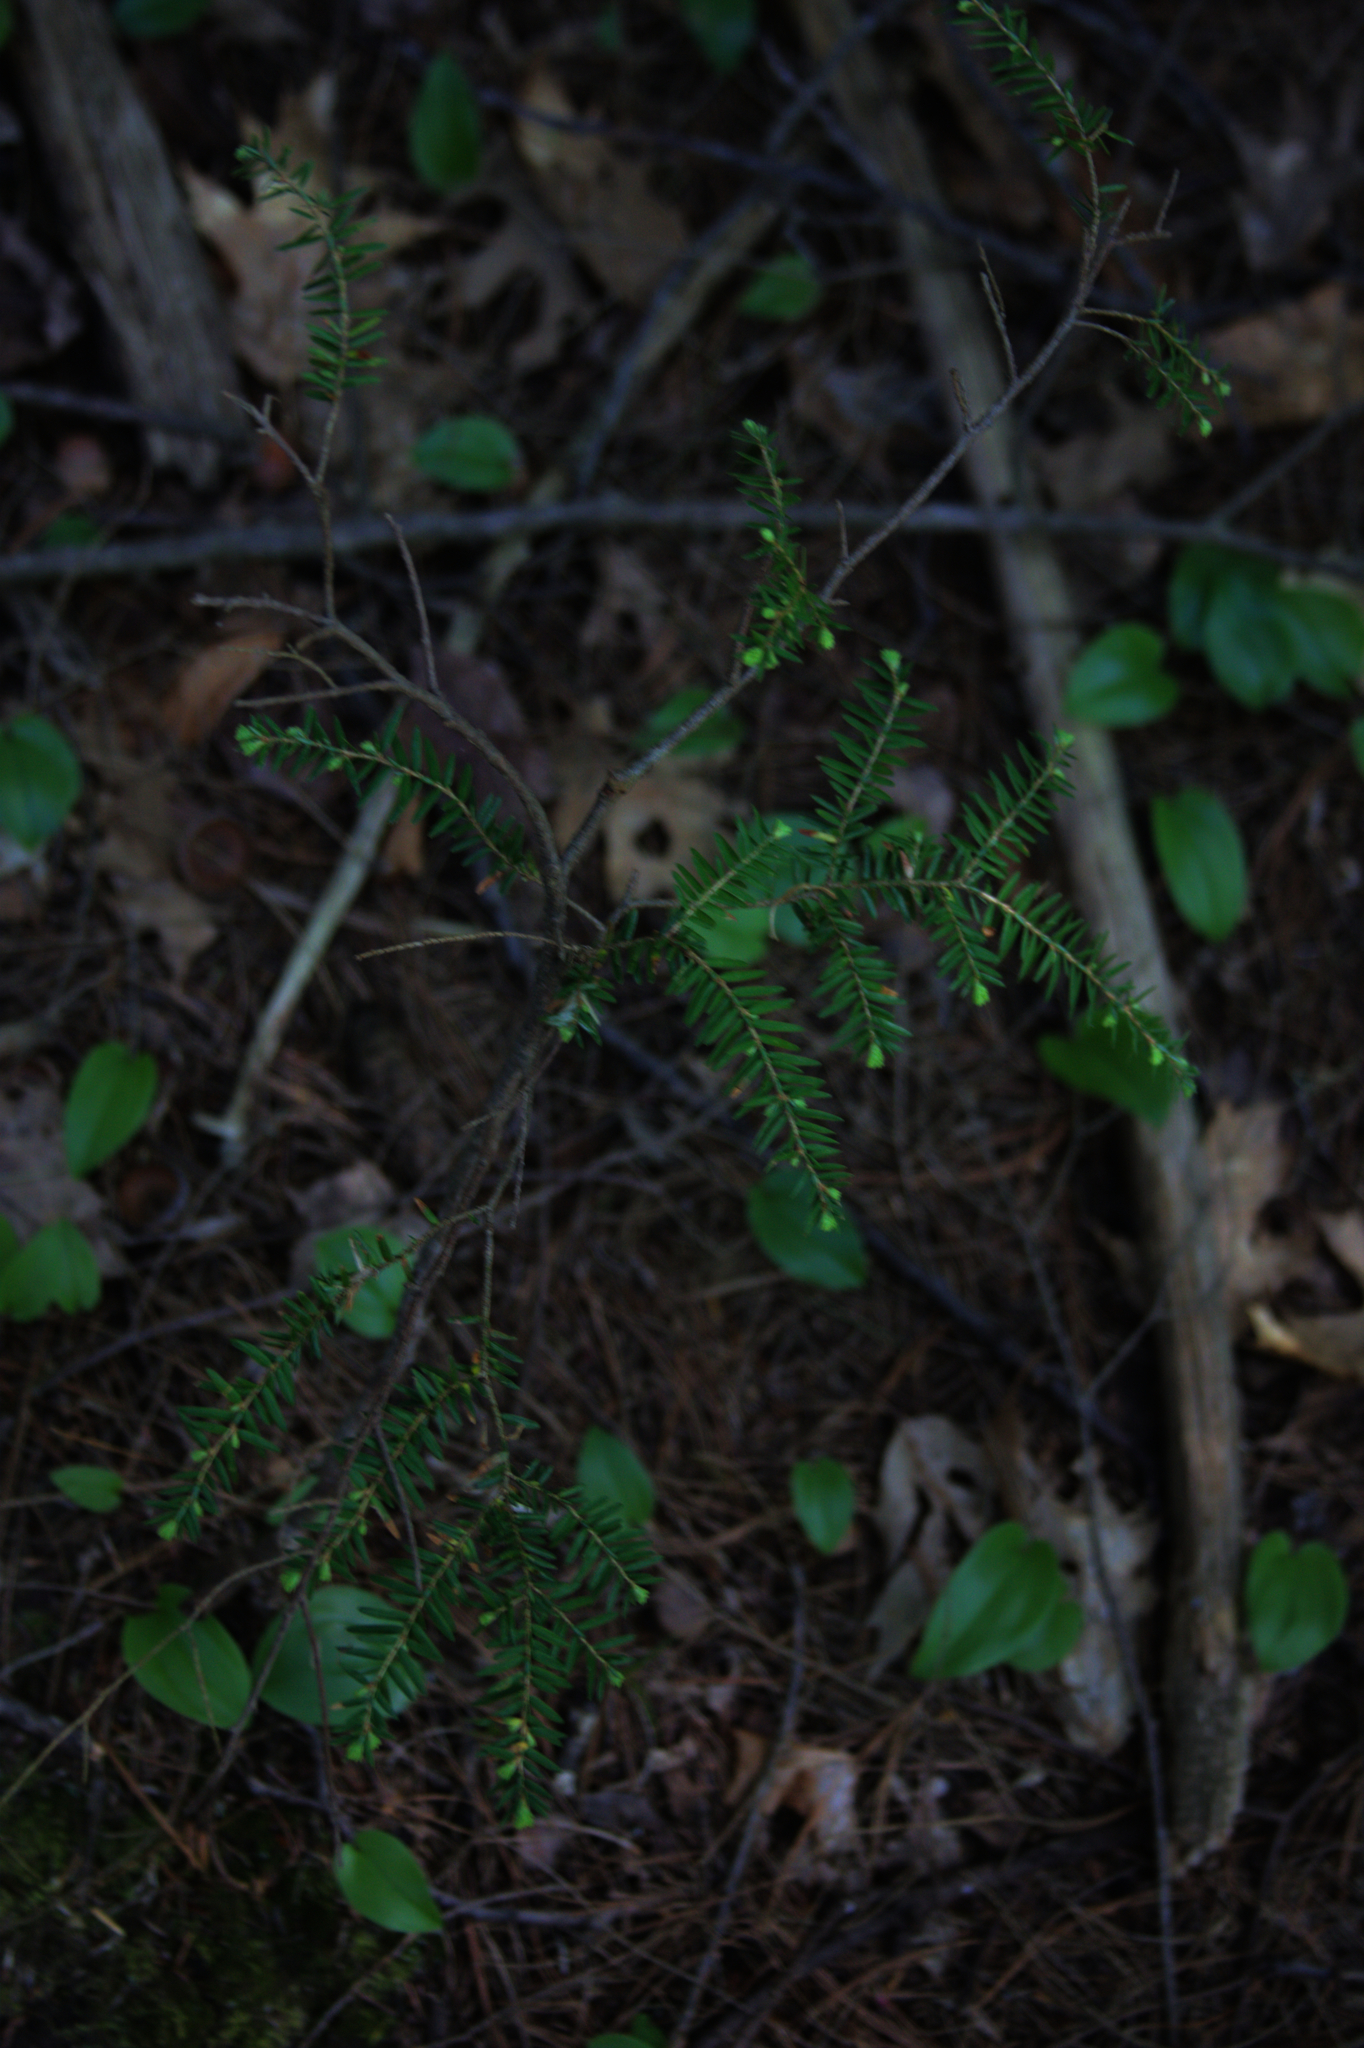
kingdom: Plantae
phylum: Tracheophyta
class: Liliopsida
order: Asparagales
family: Asparagaceae
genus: Maianthemum
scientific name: Maianthemum canadense
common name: False lily-of-the-valley
